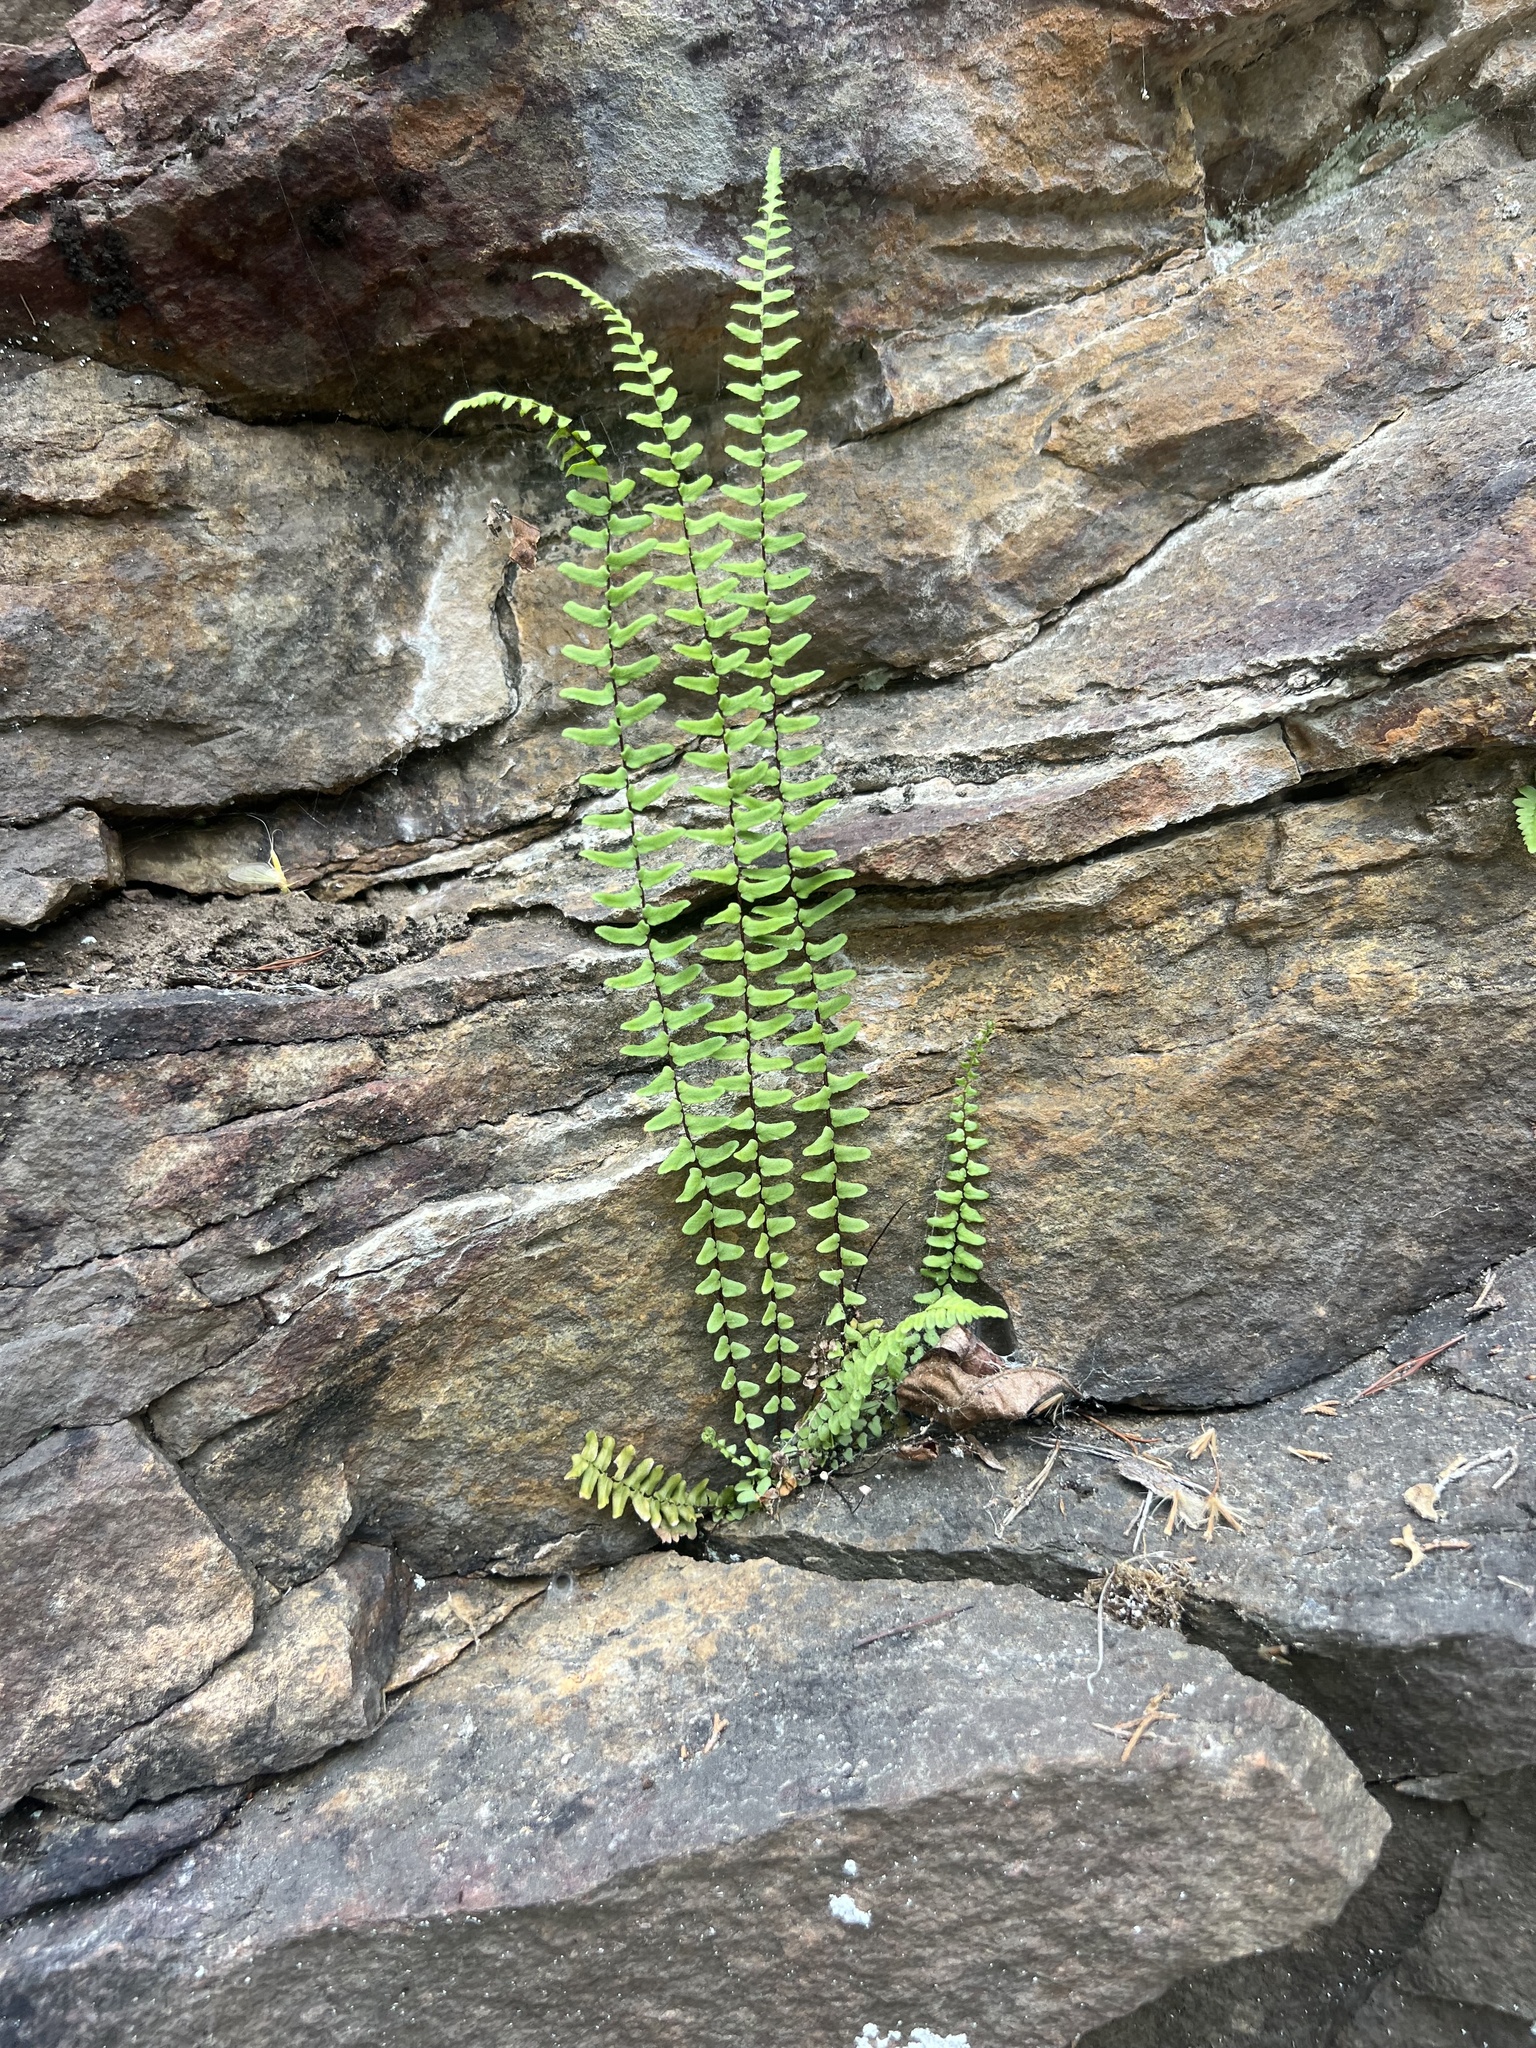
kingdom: Plantae
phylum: Tracheophyta
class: Polypodiopsida
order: Polypodiales
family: Aspleniaceae
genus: Asplenium
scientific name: Asplenium platyneuron
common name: Ebony spleenwort
